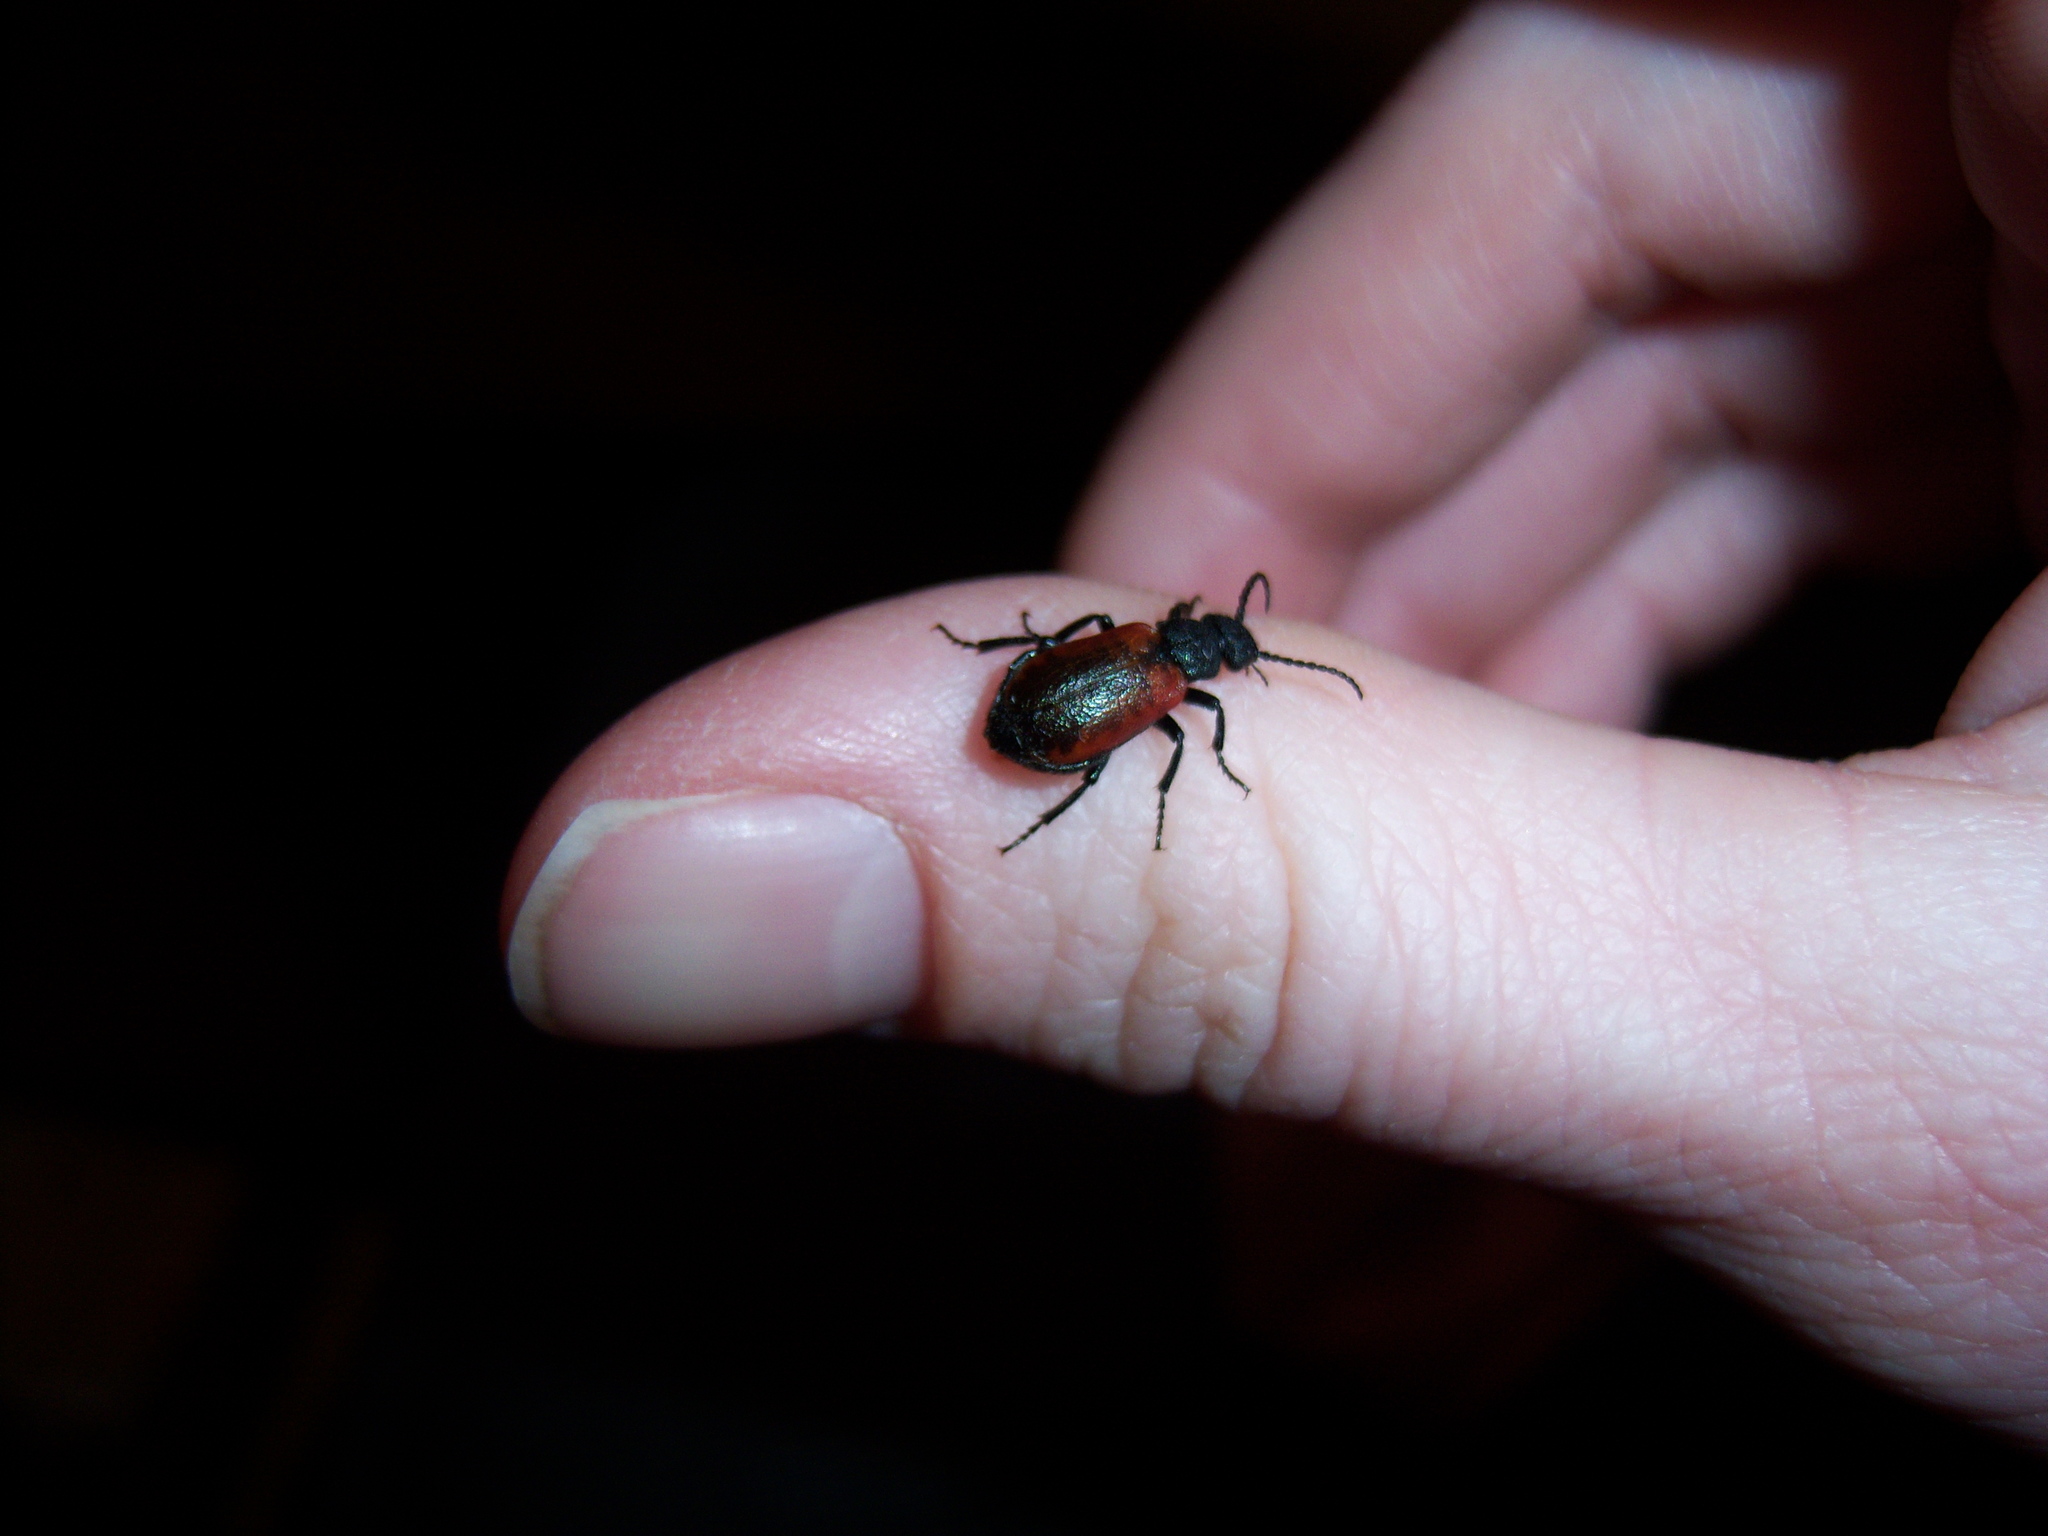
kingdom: Animalia
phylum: Arthropoda
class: Insecta
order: Coleoptera
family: Meloidae
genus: Tricrania
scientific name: Tricrania sanguinipennis
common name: Blood-winged blister beetle
